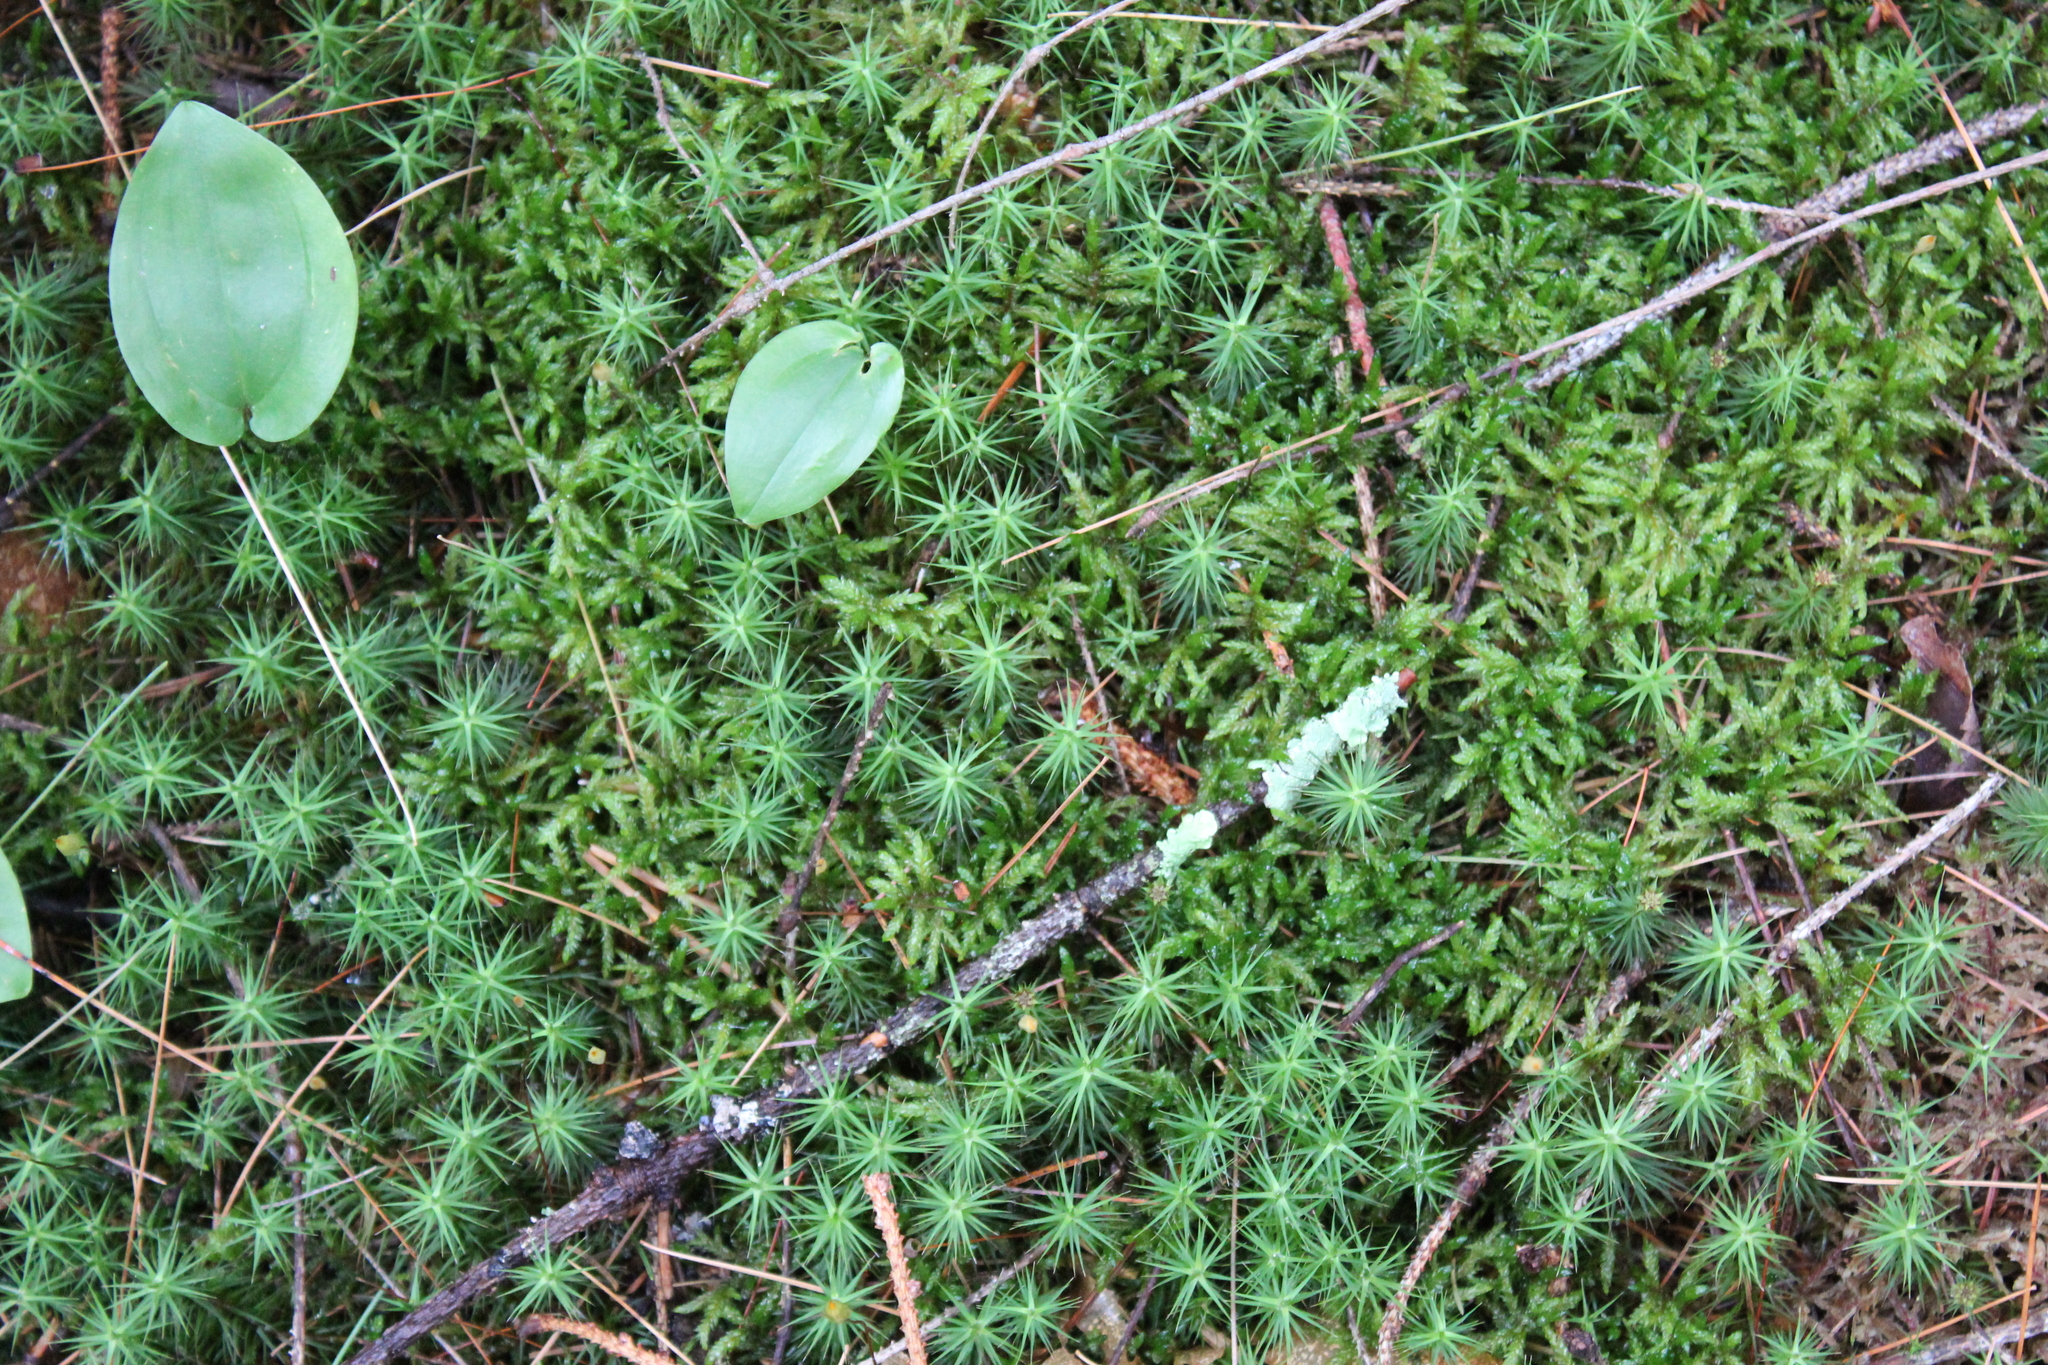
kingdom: Plantae
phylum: Tracheophyta
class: Liliopsida
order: Asparagales
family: Asparagaceae
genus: Maianthemum
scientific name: Maianthemum canadense
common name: False lily-of-the-valley
